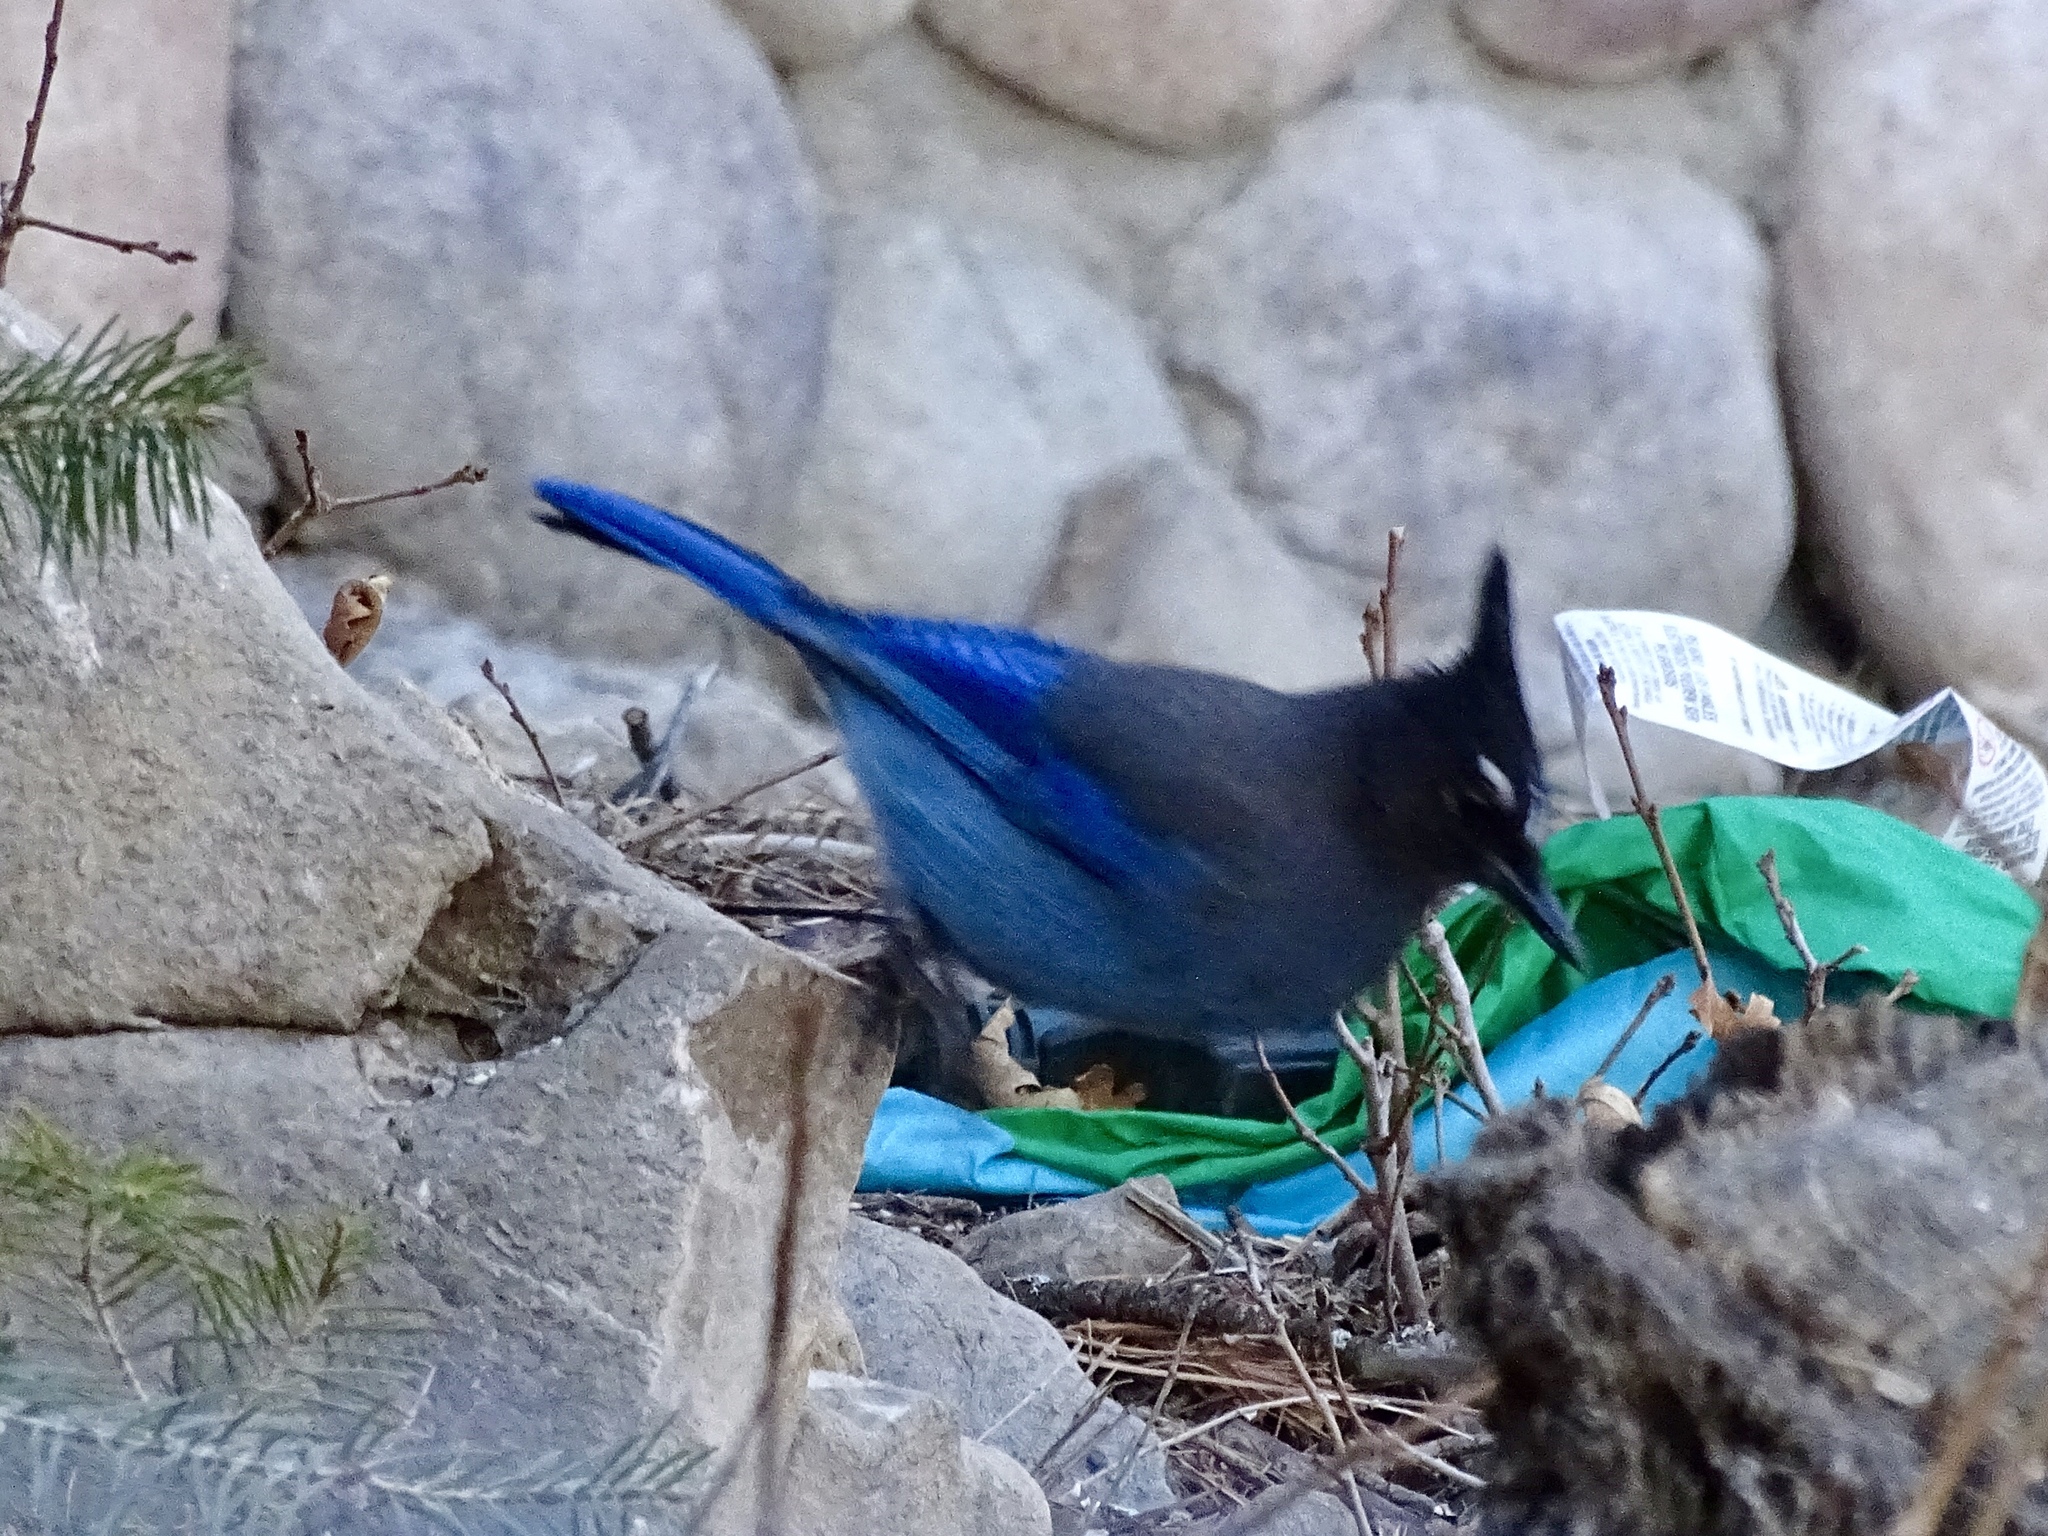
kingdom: Animalia
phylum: Chordata
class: Aves
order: Passeriformes
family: Corvidae
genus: Cyanocitta
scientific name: Cyanocitta stelleri
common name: Steller's jay
